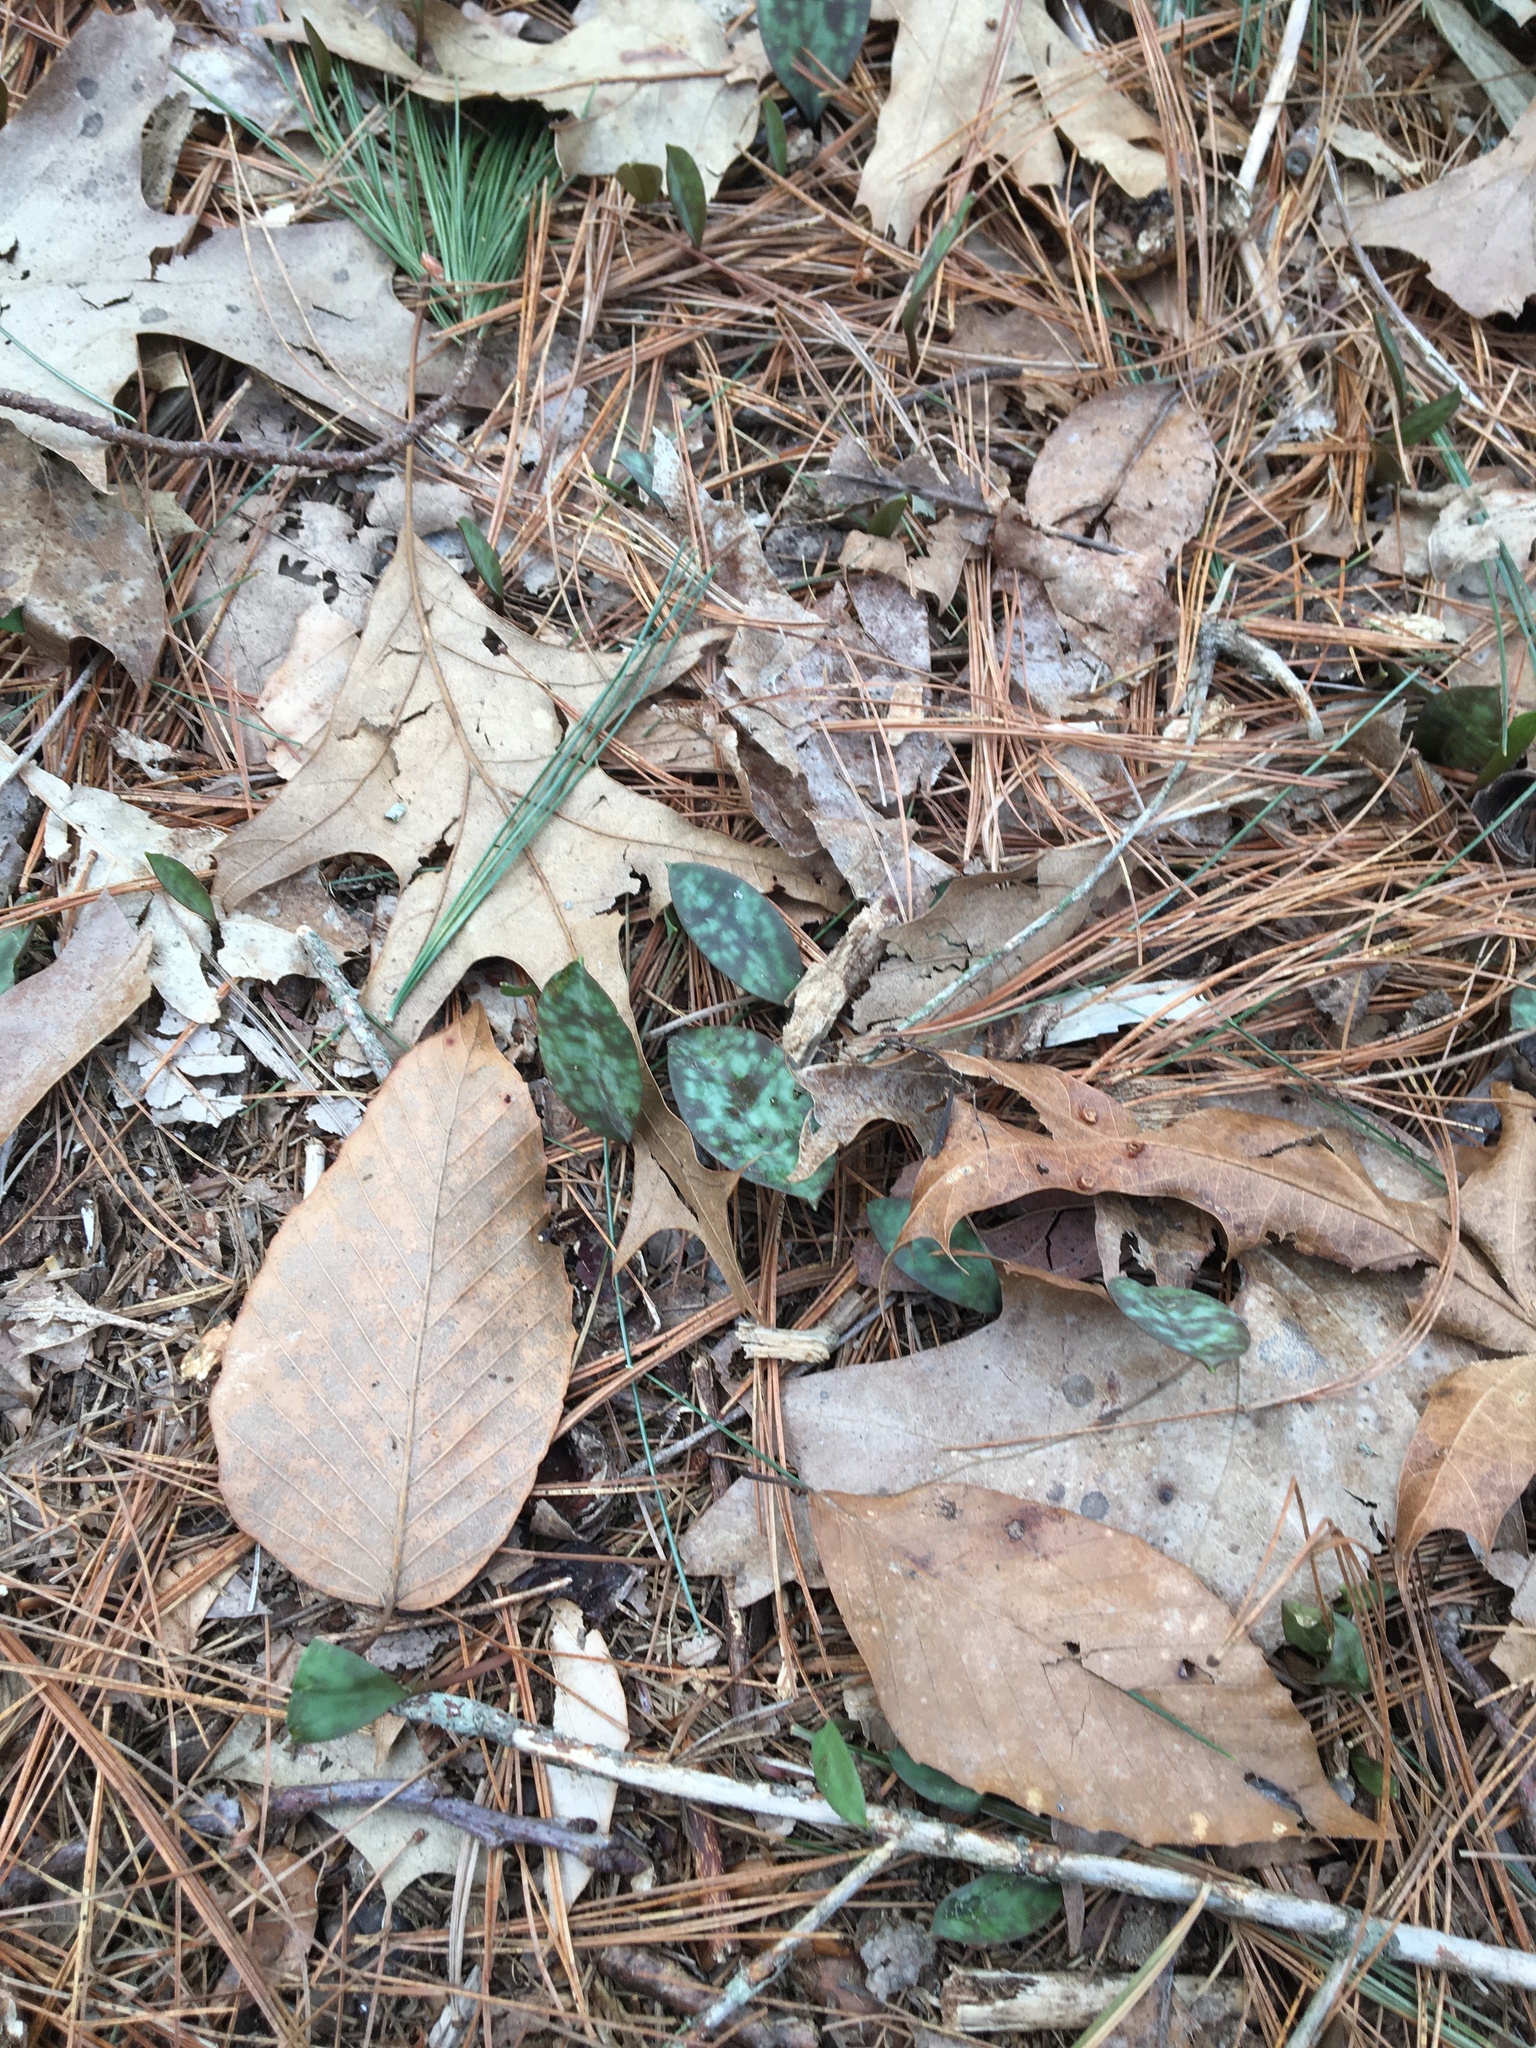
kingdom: Plantae
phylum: Tracheophyta
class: Liliopsida
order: Liliales
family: Liliaceae
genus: Erythronium
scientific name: Erythronium americanum
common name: Yellow adder's-tongue
